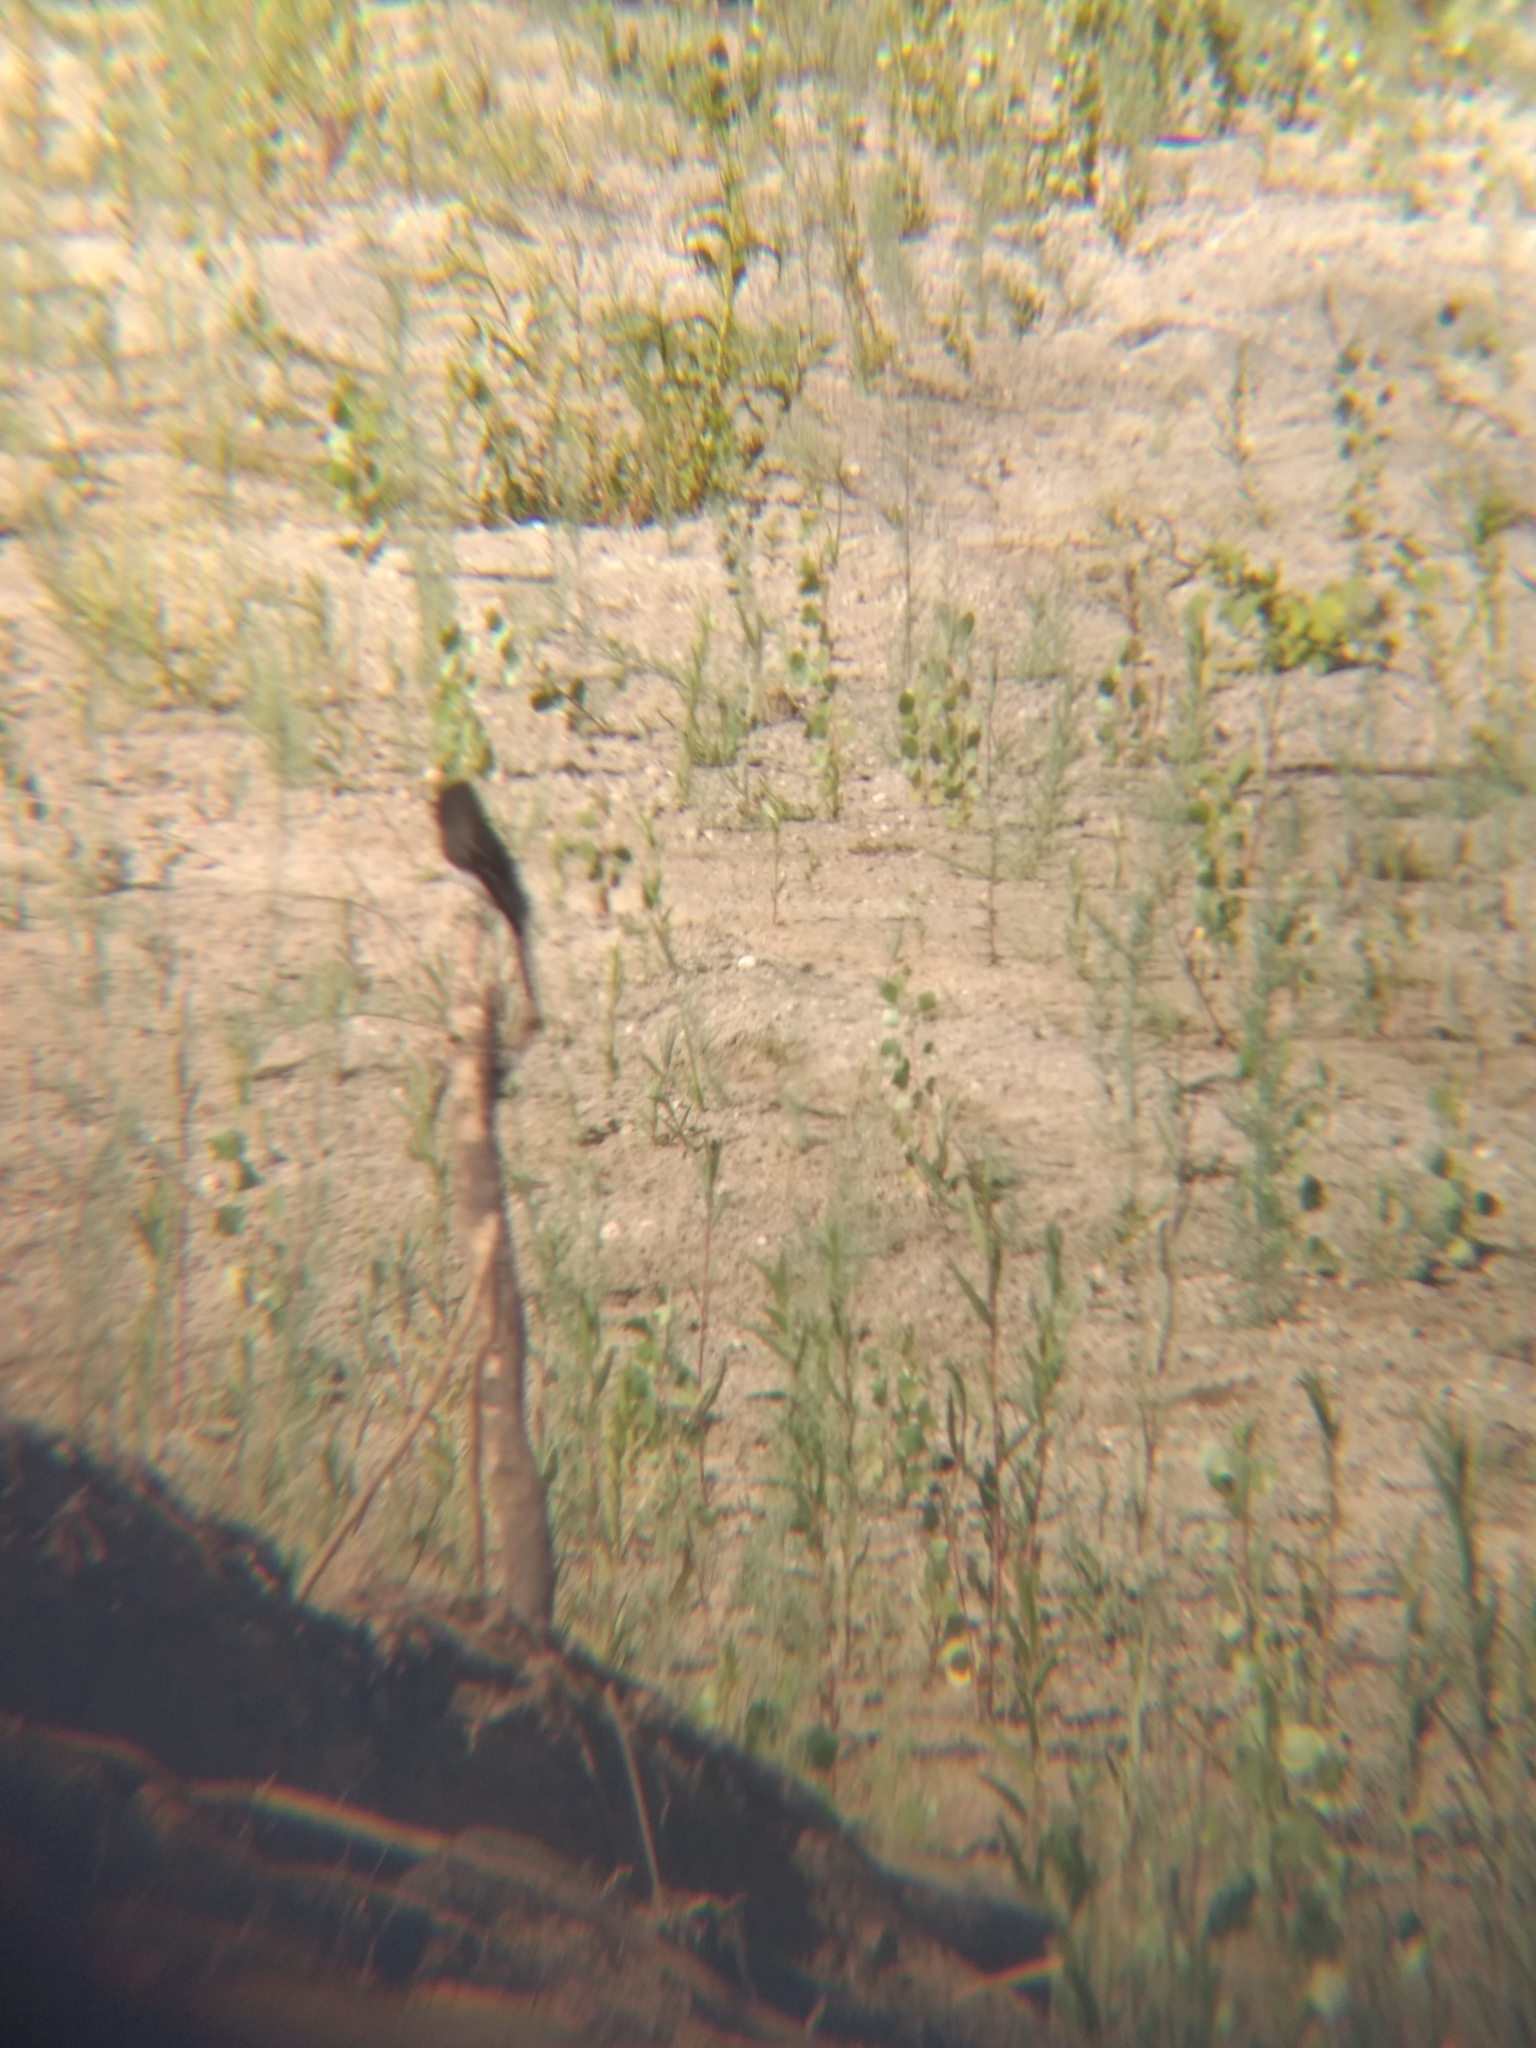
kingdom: Animalia
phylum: Chordata
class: Aves
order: Passeriformes
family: Tyrannidae
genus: Sayornis
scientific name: Sayornis nigricans
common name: Black phoebe
